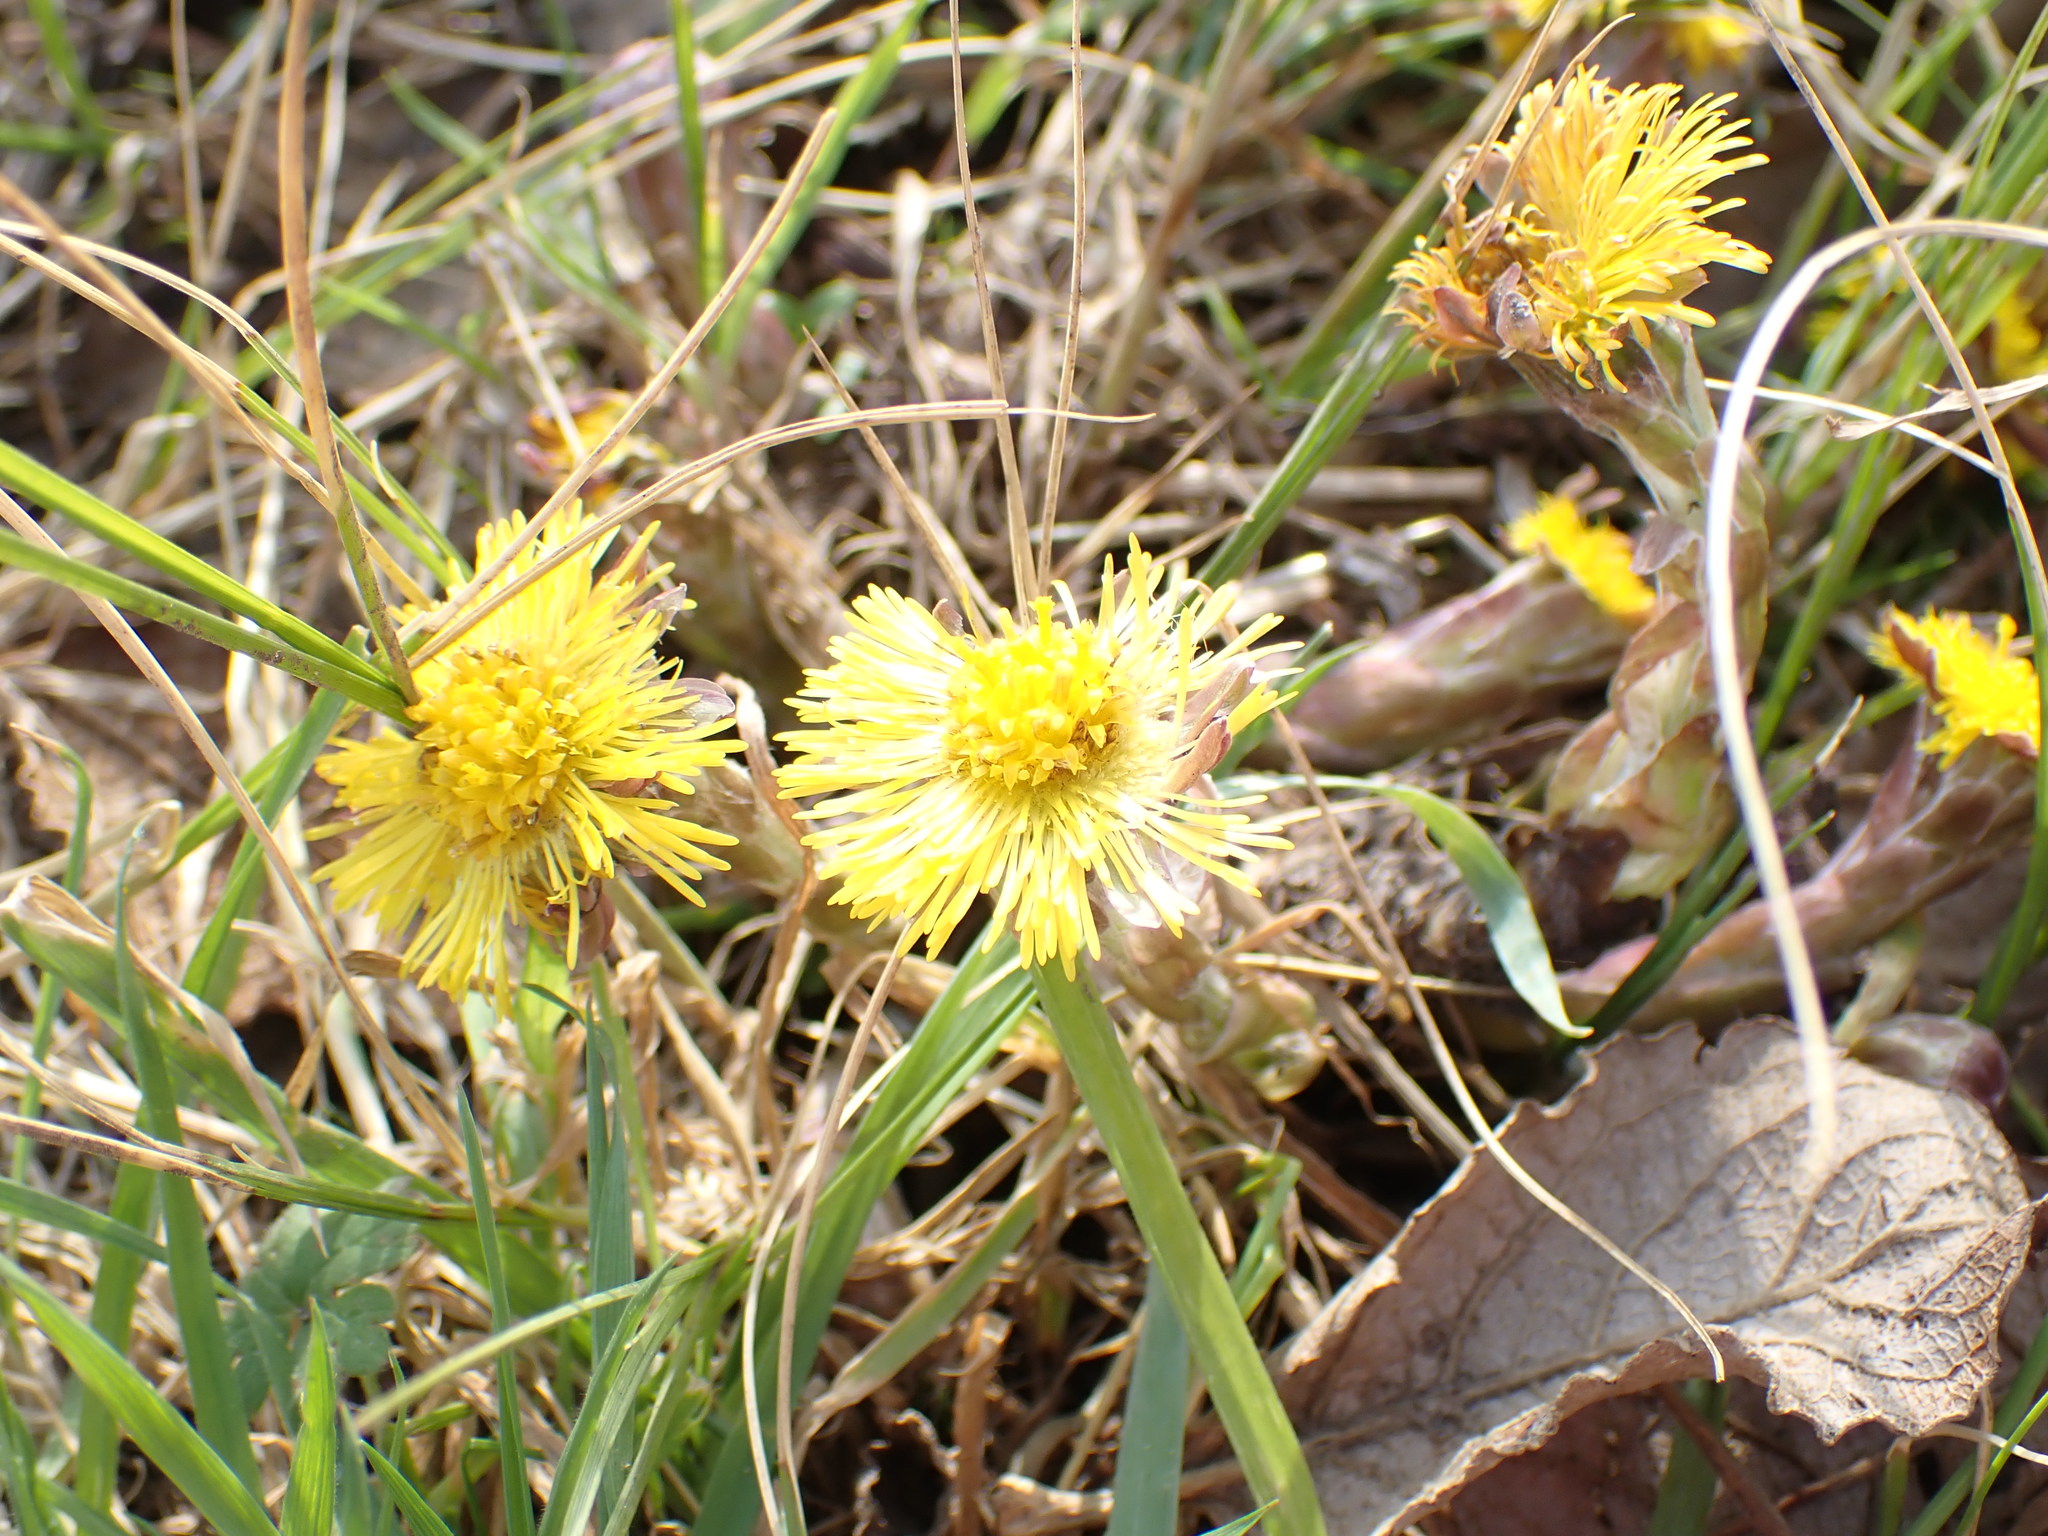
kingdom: Plantae
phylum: Tracheophyta
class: Magnoliopsida
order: Asterales
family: Asteraceae
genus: Tussilago
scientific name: Tussilago farfara
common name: Coltsfoot
